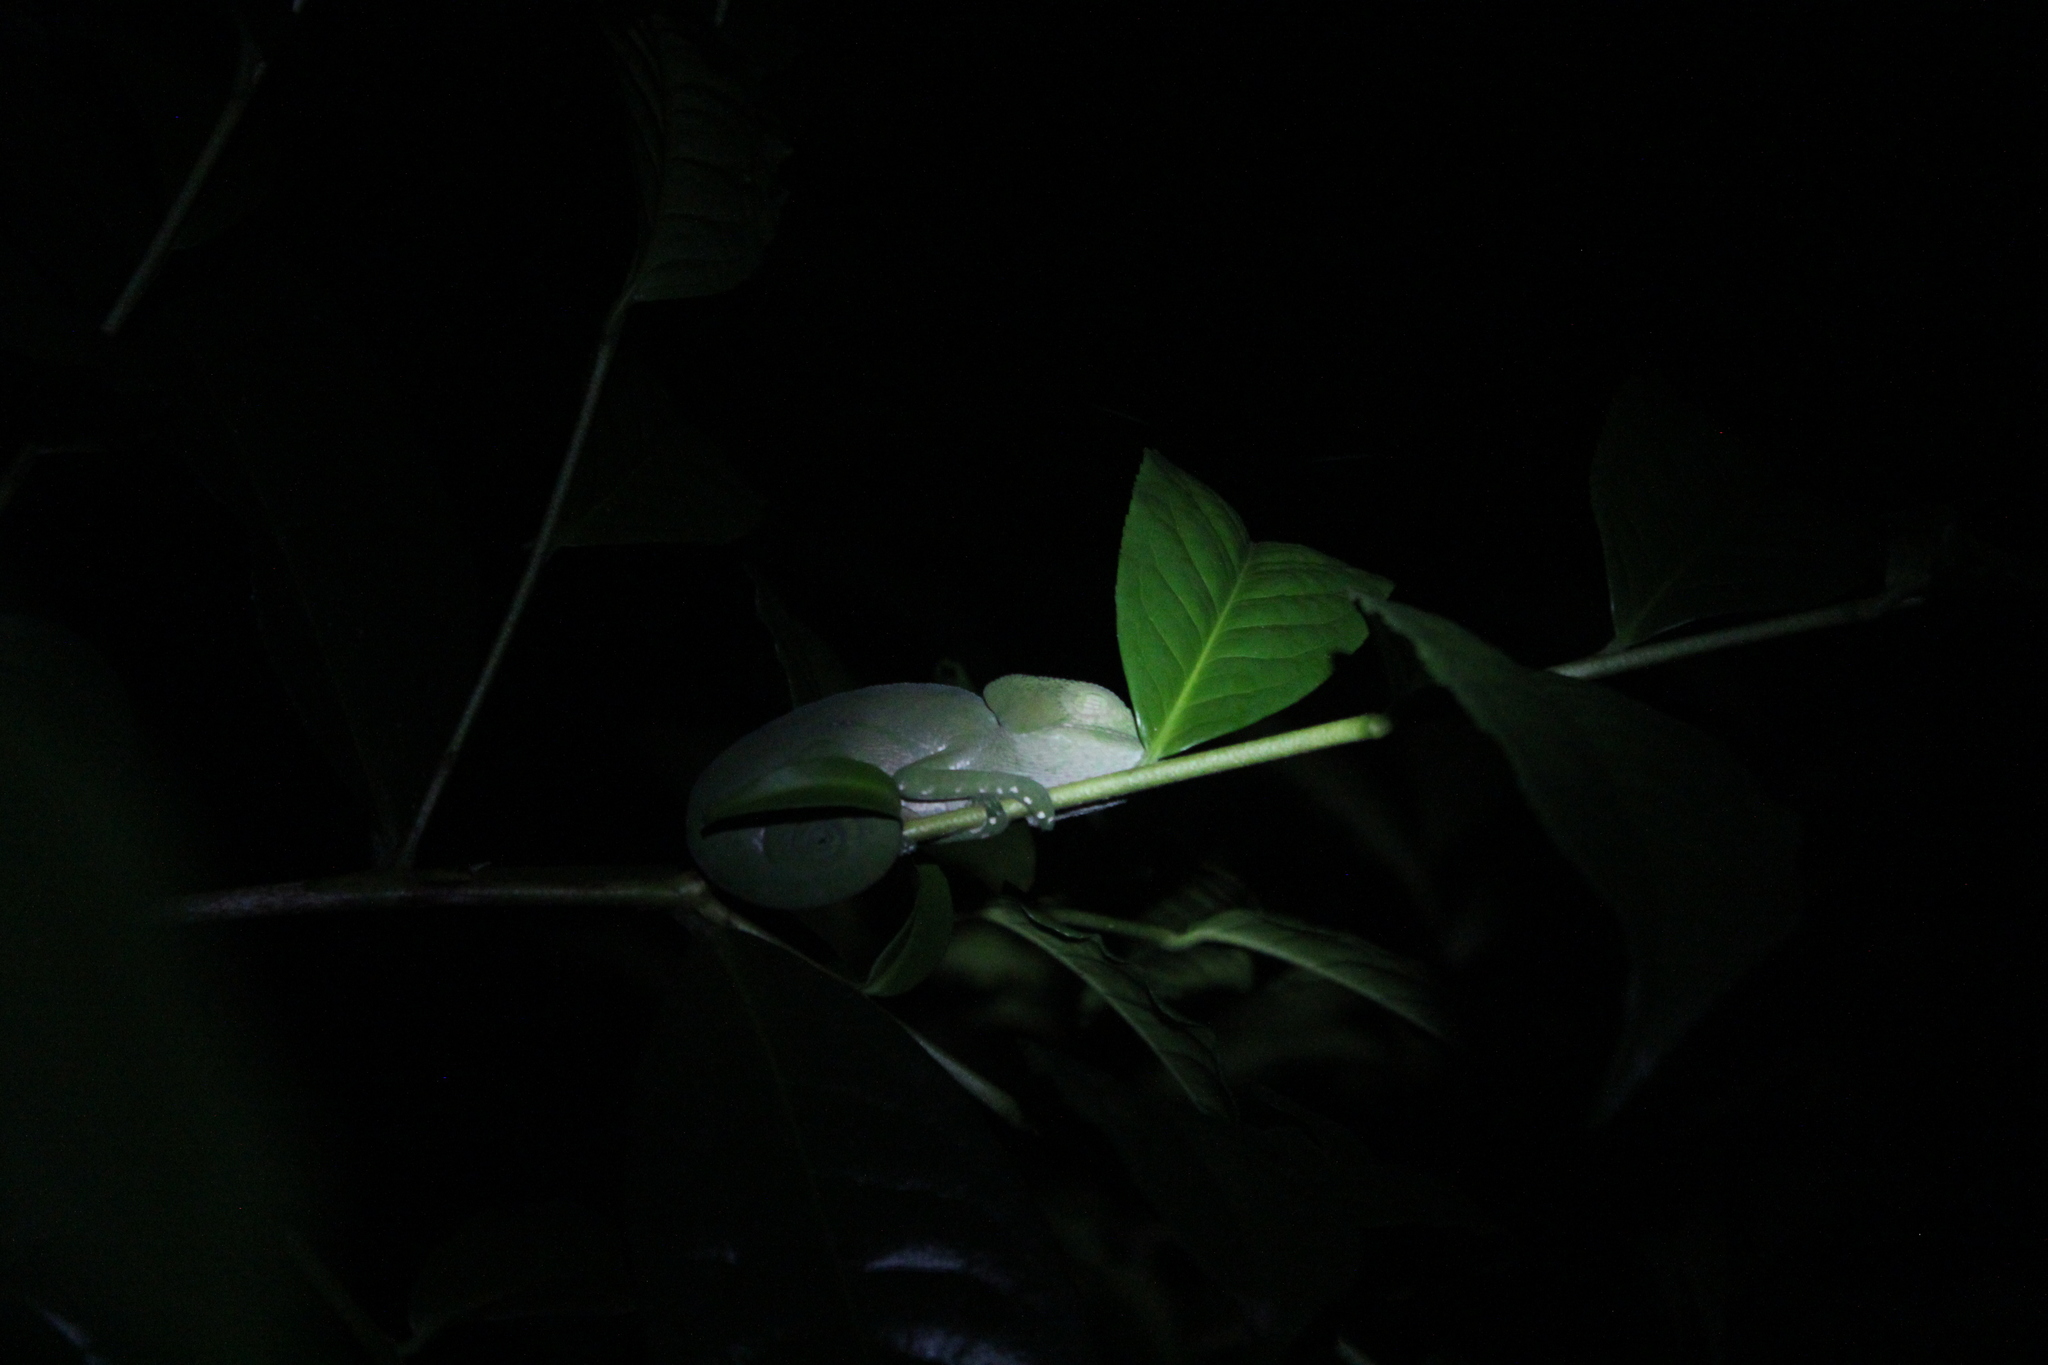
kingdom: Animalia
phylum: Chordata
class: Squamata
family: Chamaeleonidae
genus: Calumma
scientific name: Calumma parsonii
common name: Parson's chameleon
